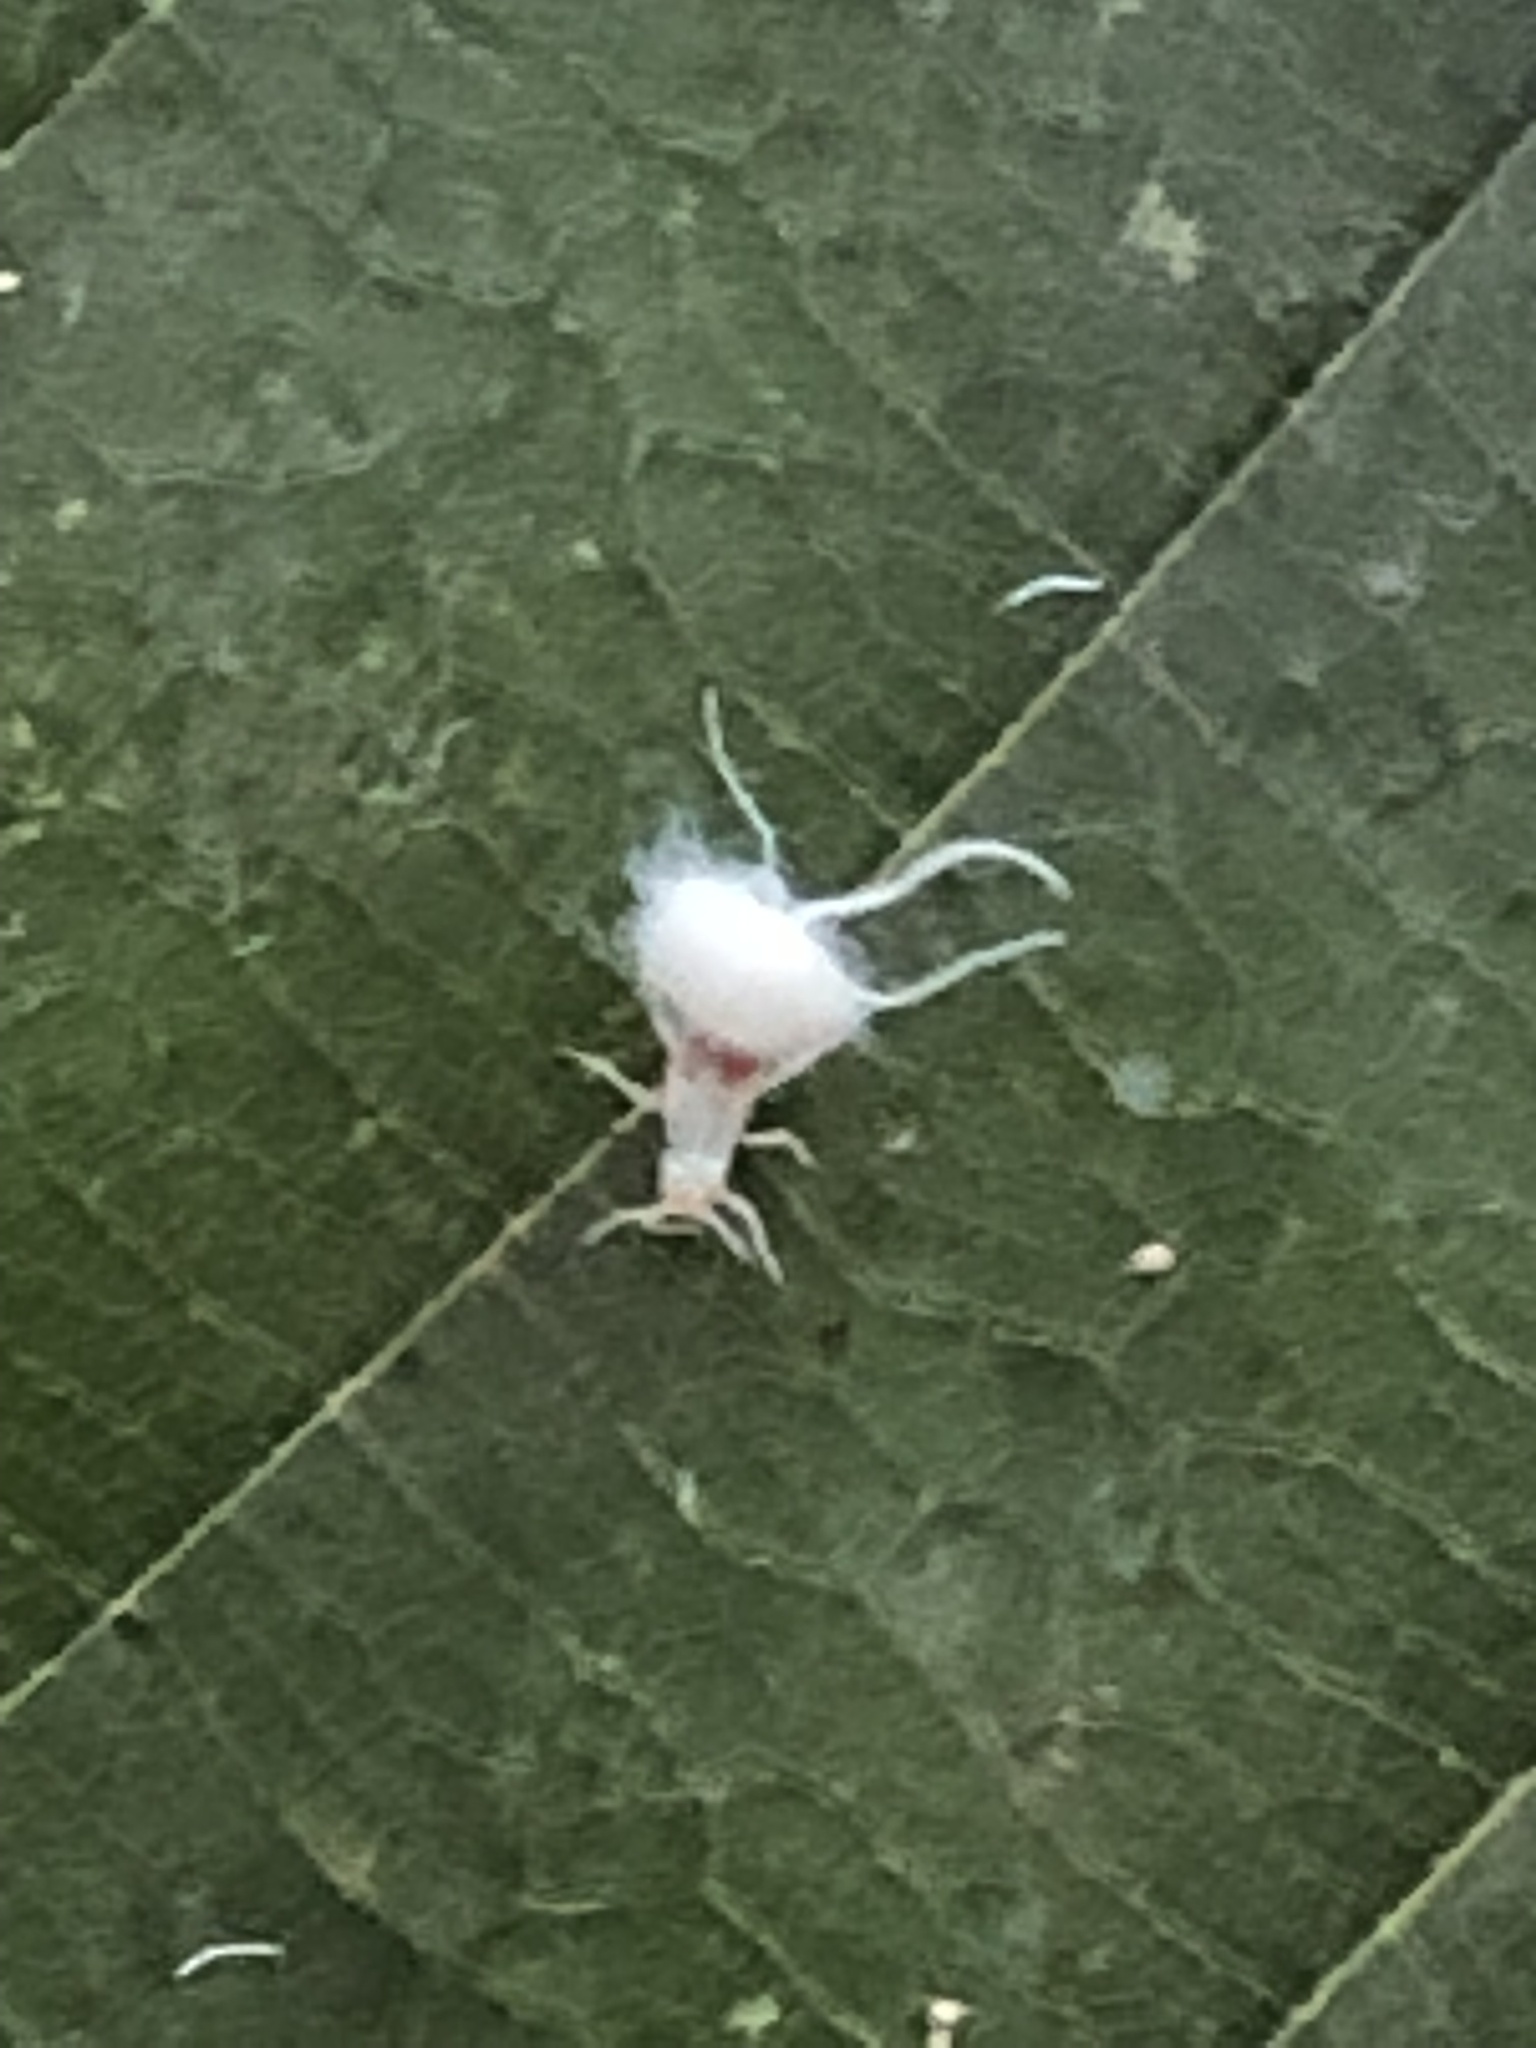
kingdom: Animalia
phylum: Arthropoda
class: Insecta
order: Hemiptera
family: Aphididae
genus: Grylloprociphilus
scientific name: Grylloprociphilus imbricator
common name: Beech blight aphid
